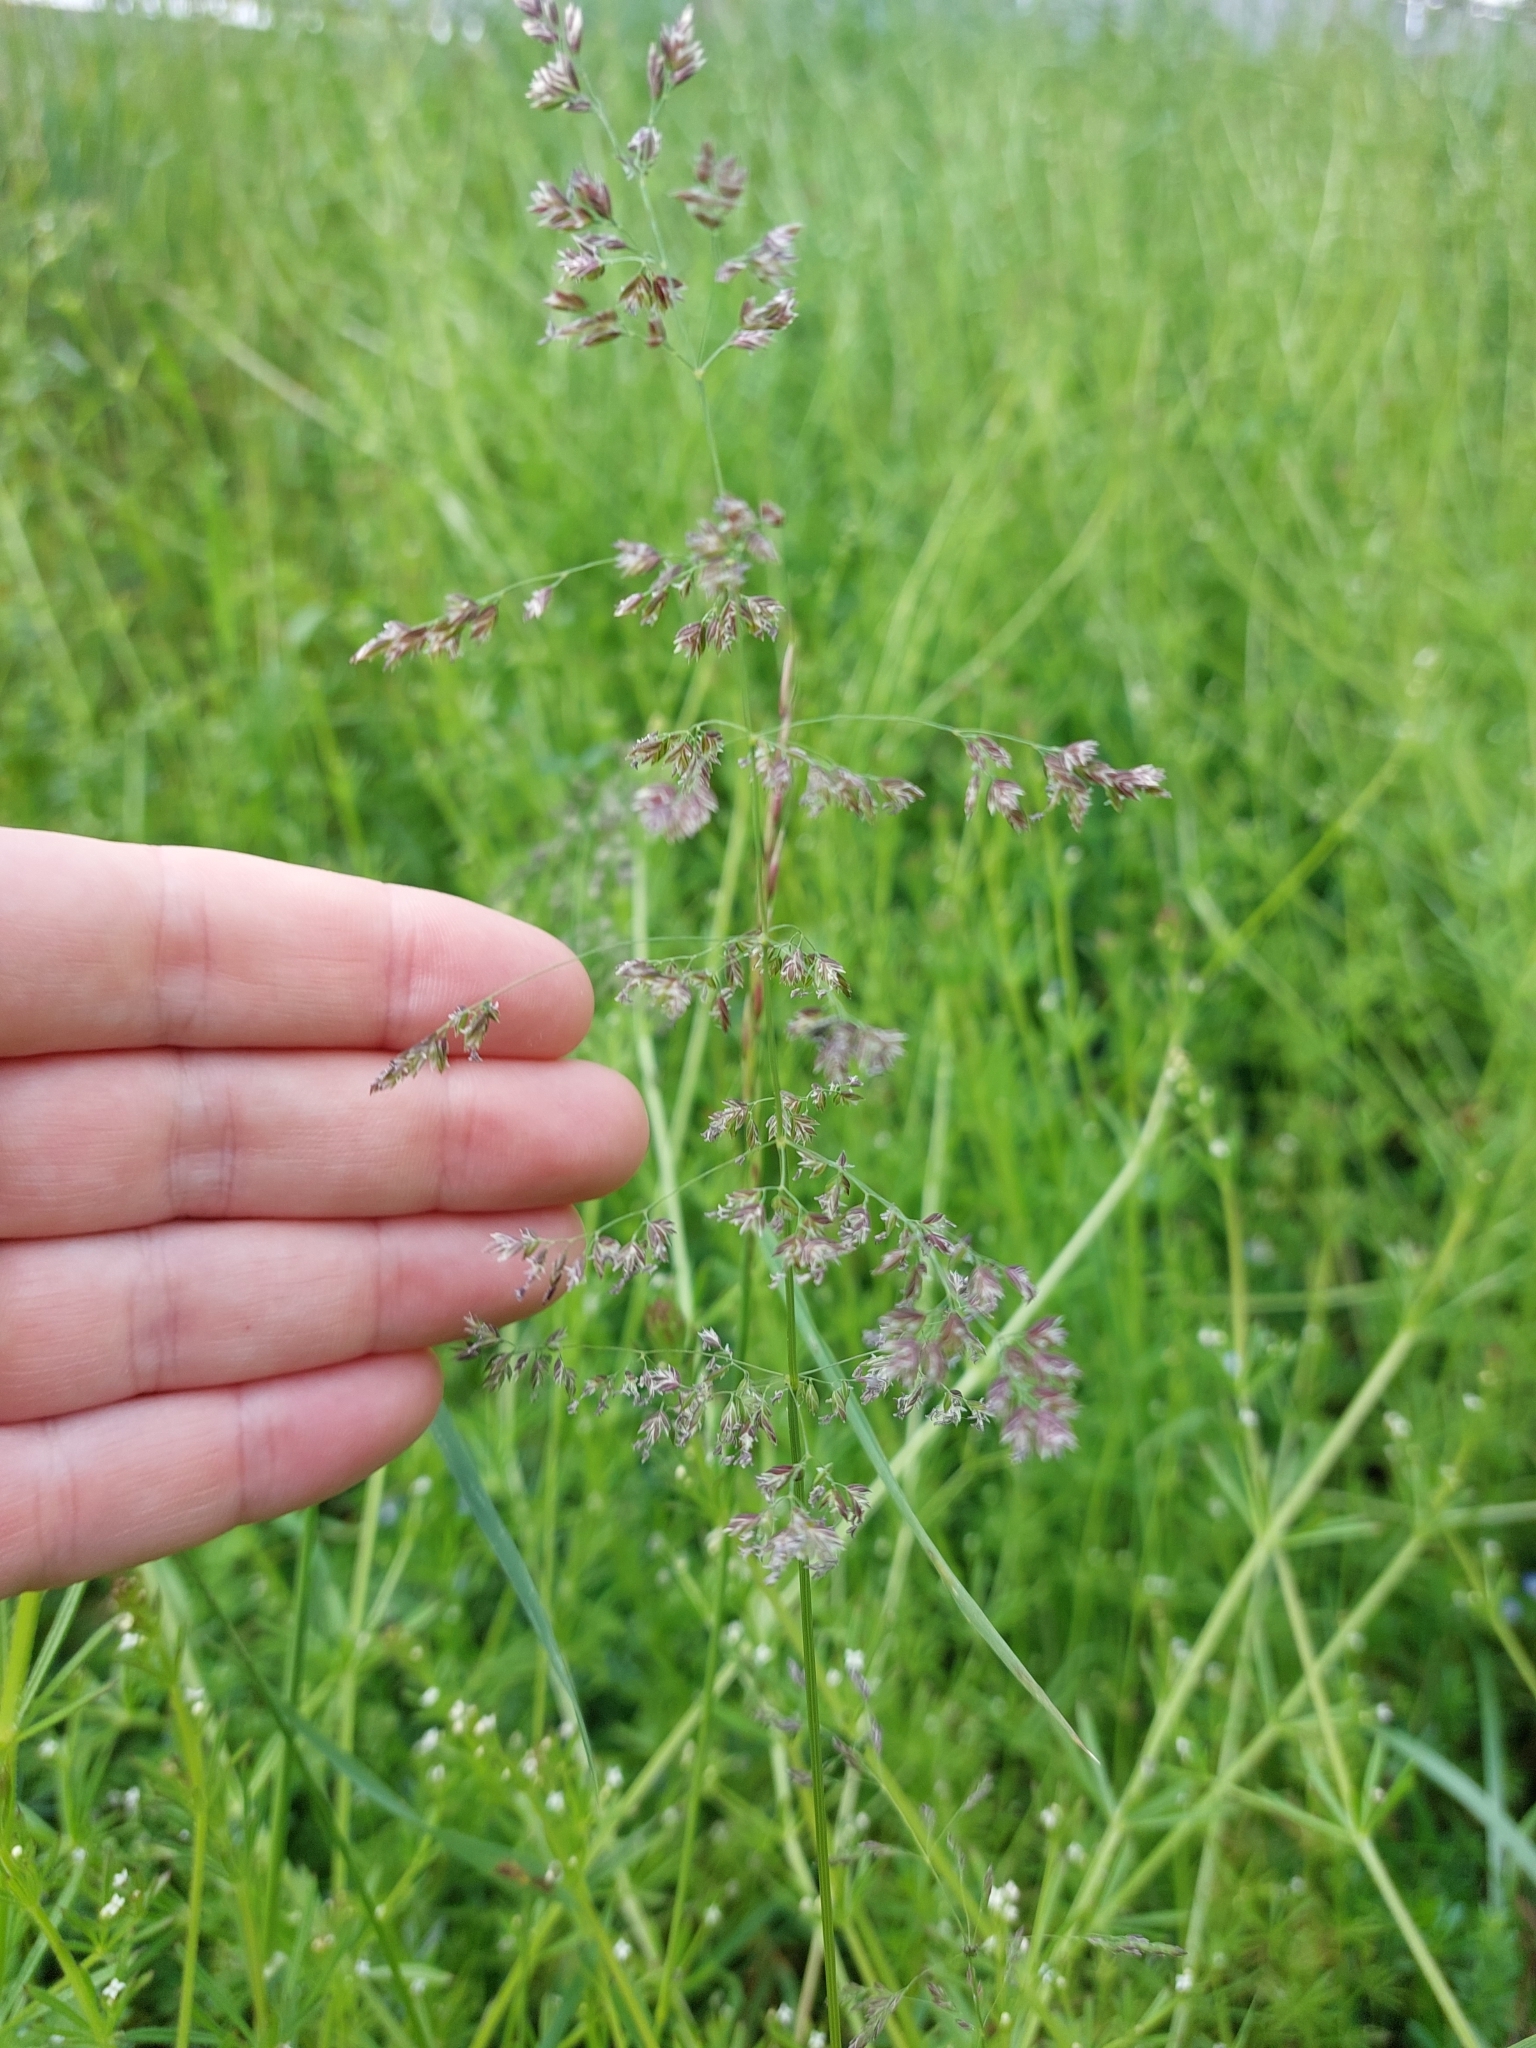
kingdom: Plantae
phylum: Tracheophyta
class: Liliopsida
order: Poales
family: Poaceae
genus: Poa
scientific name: Poa trivialis
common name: Rough bluegrass
